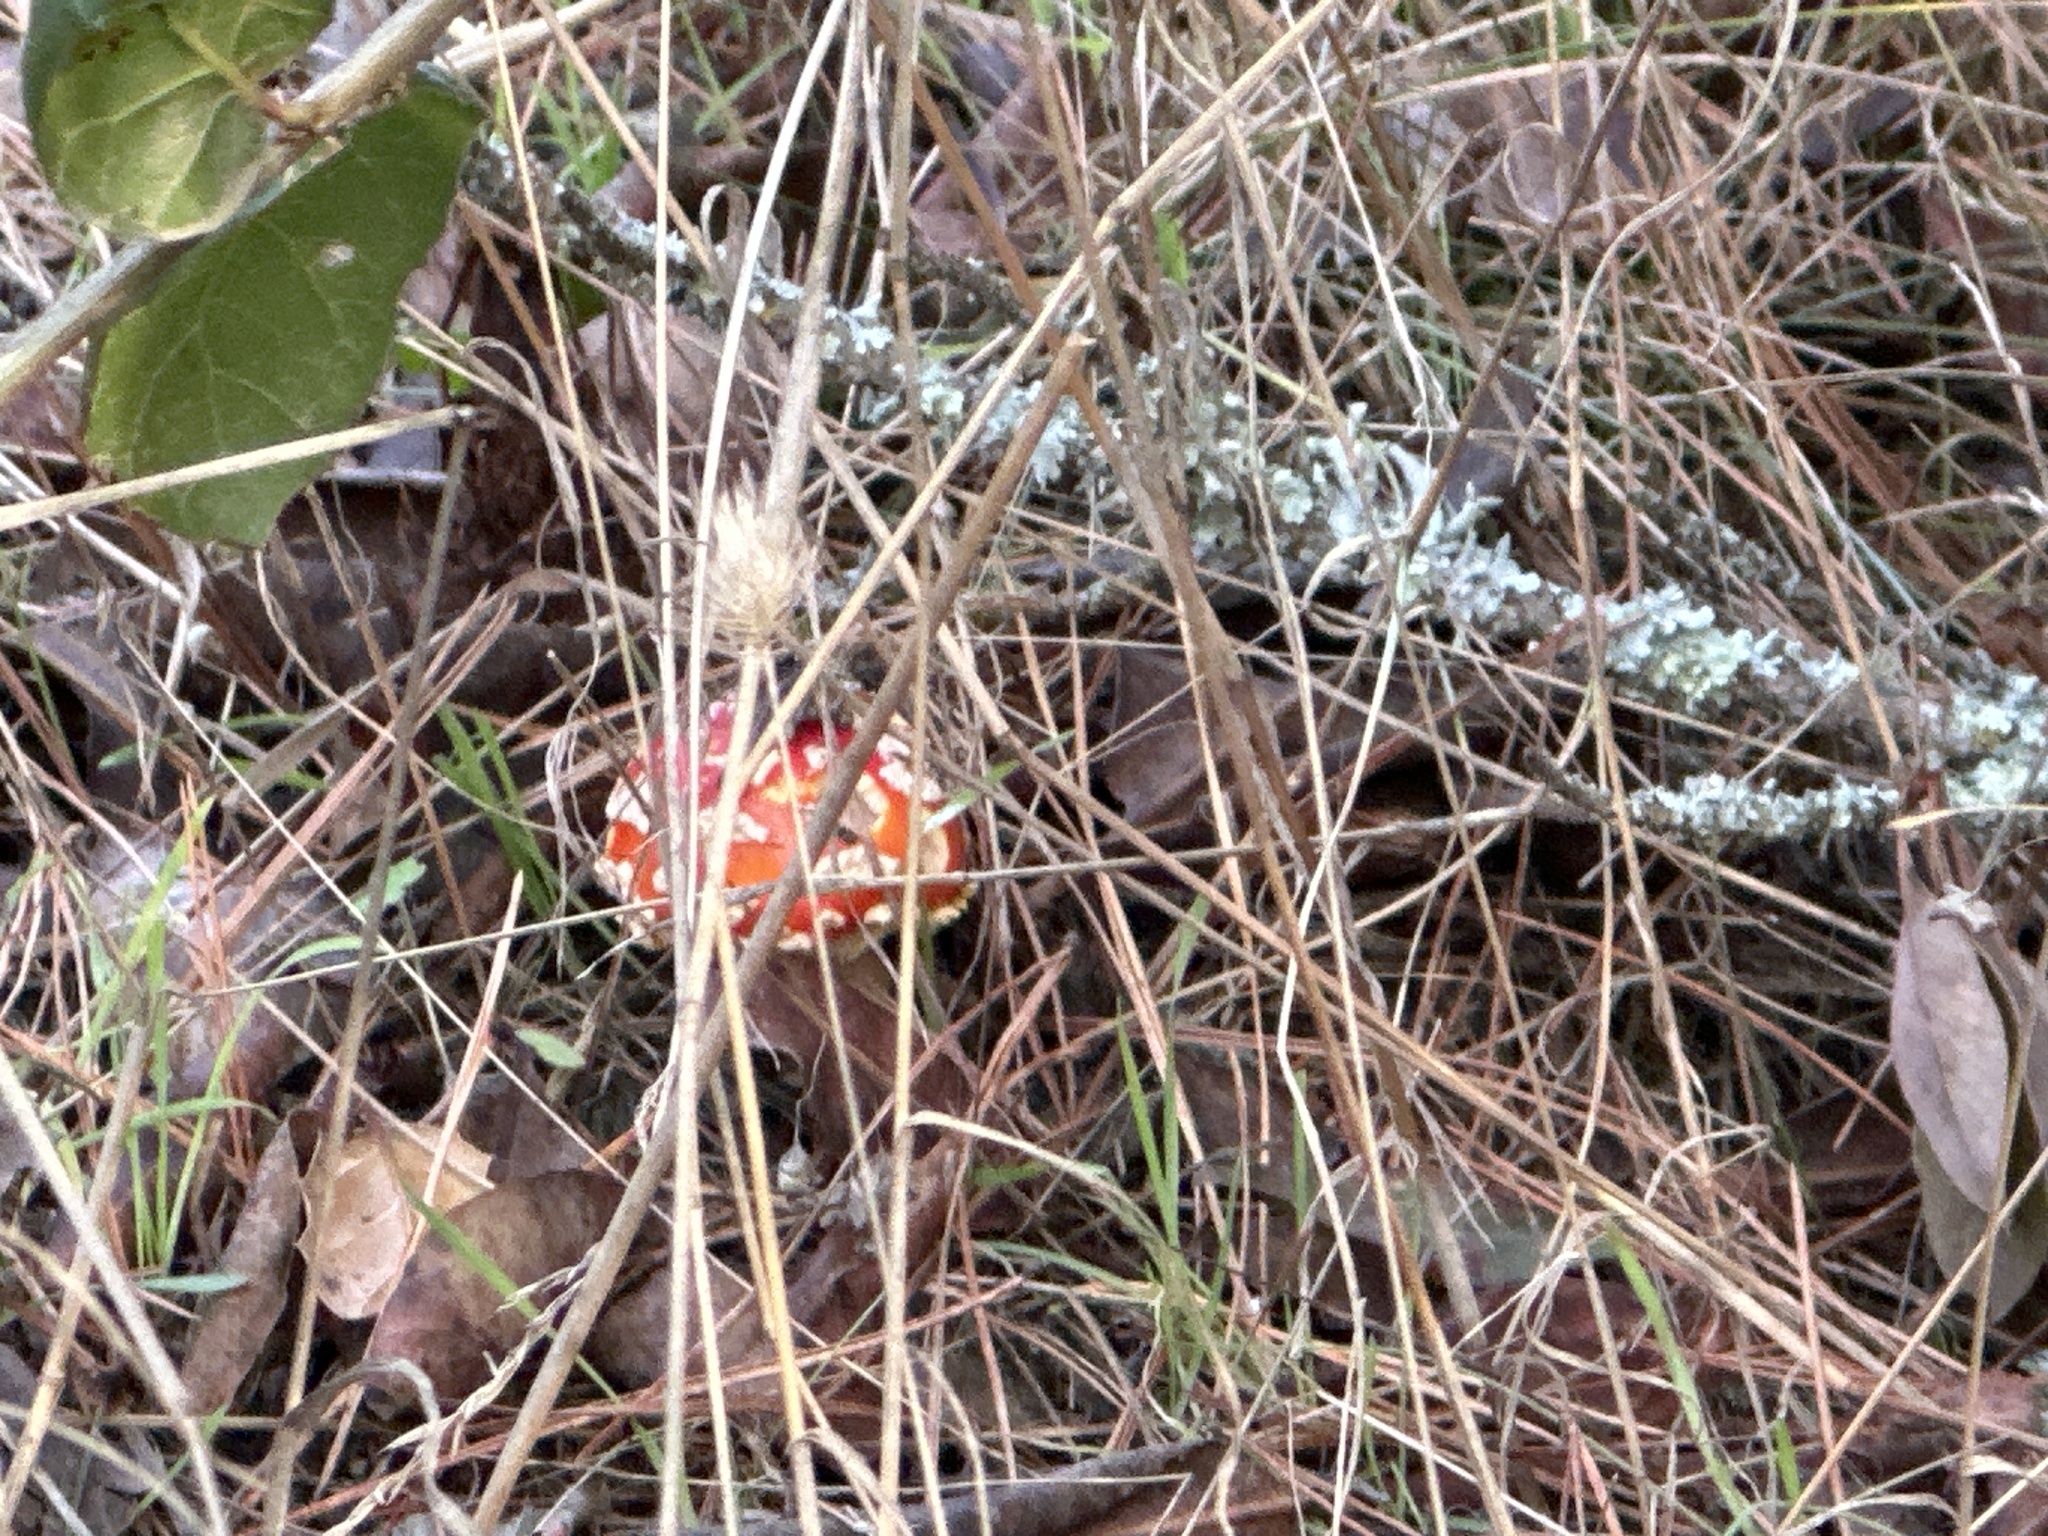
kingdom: Fungi
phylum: Basidiomycota
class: Agaricomycetes
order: Agaricales
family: Amanitaceae
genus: Amanita
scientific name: Amanita muscaria
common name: Fly agaric
